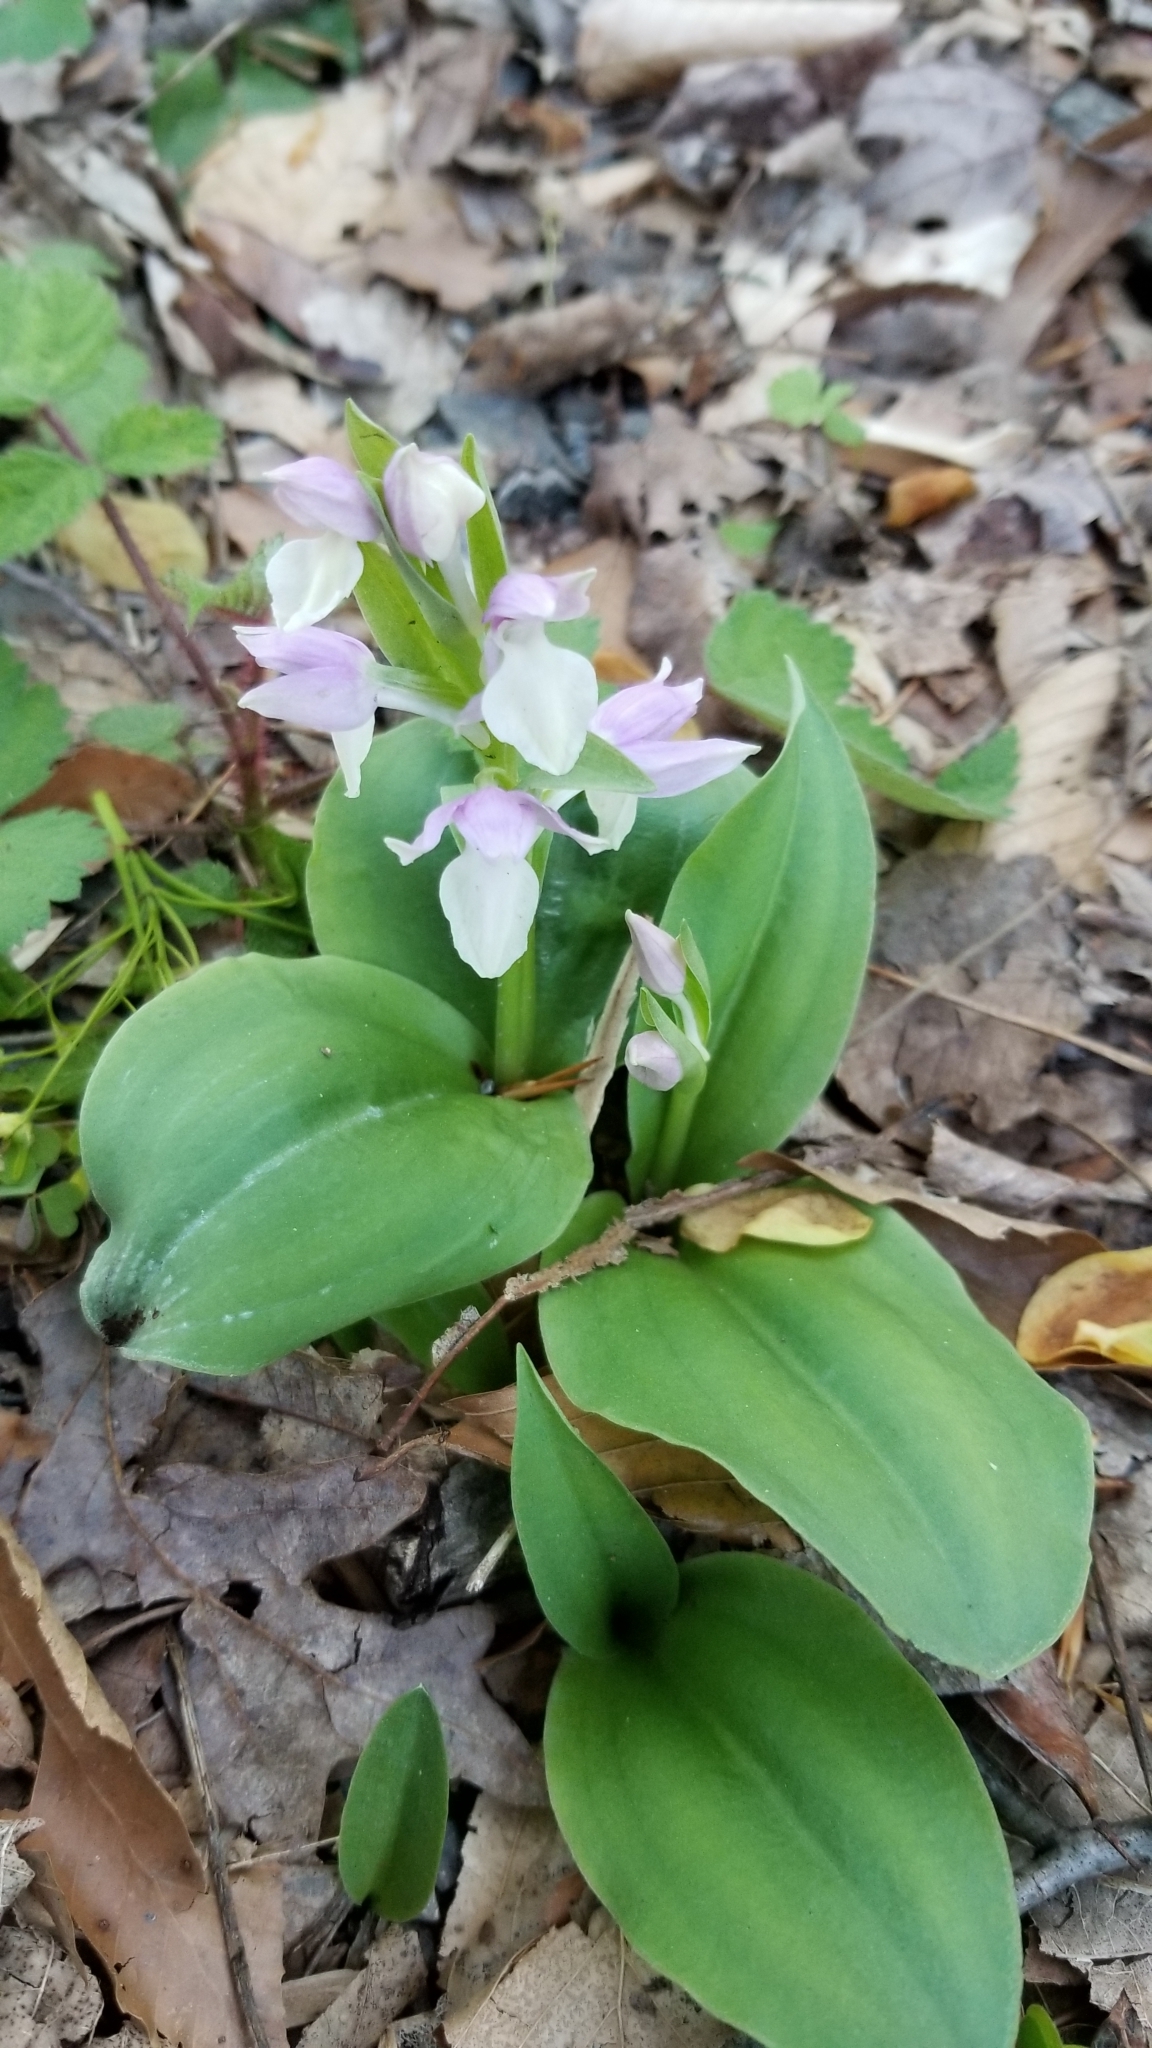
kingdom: Plantae
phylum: Tracheophyta
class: Liliopsida
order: Asparagales
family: Orchidaceae
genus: Galearis
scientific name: Galearis spectabilis
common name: Purple-hooded orchis
